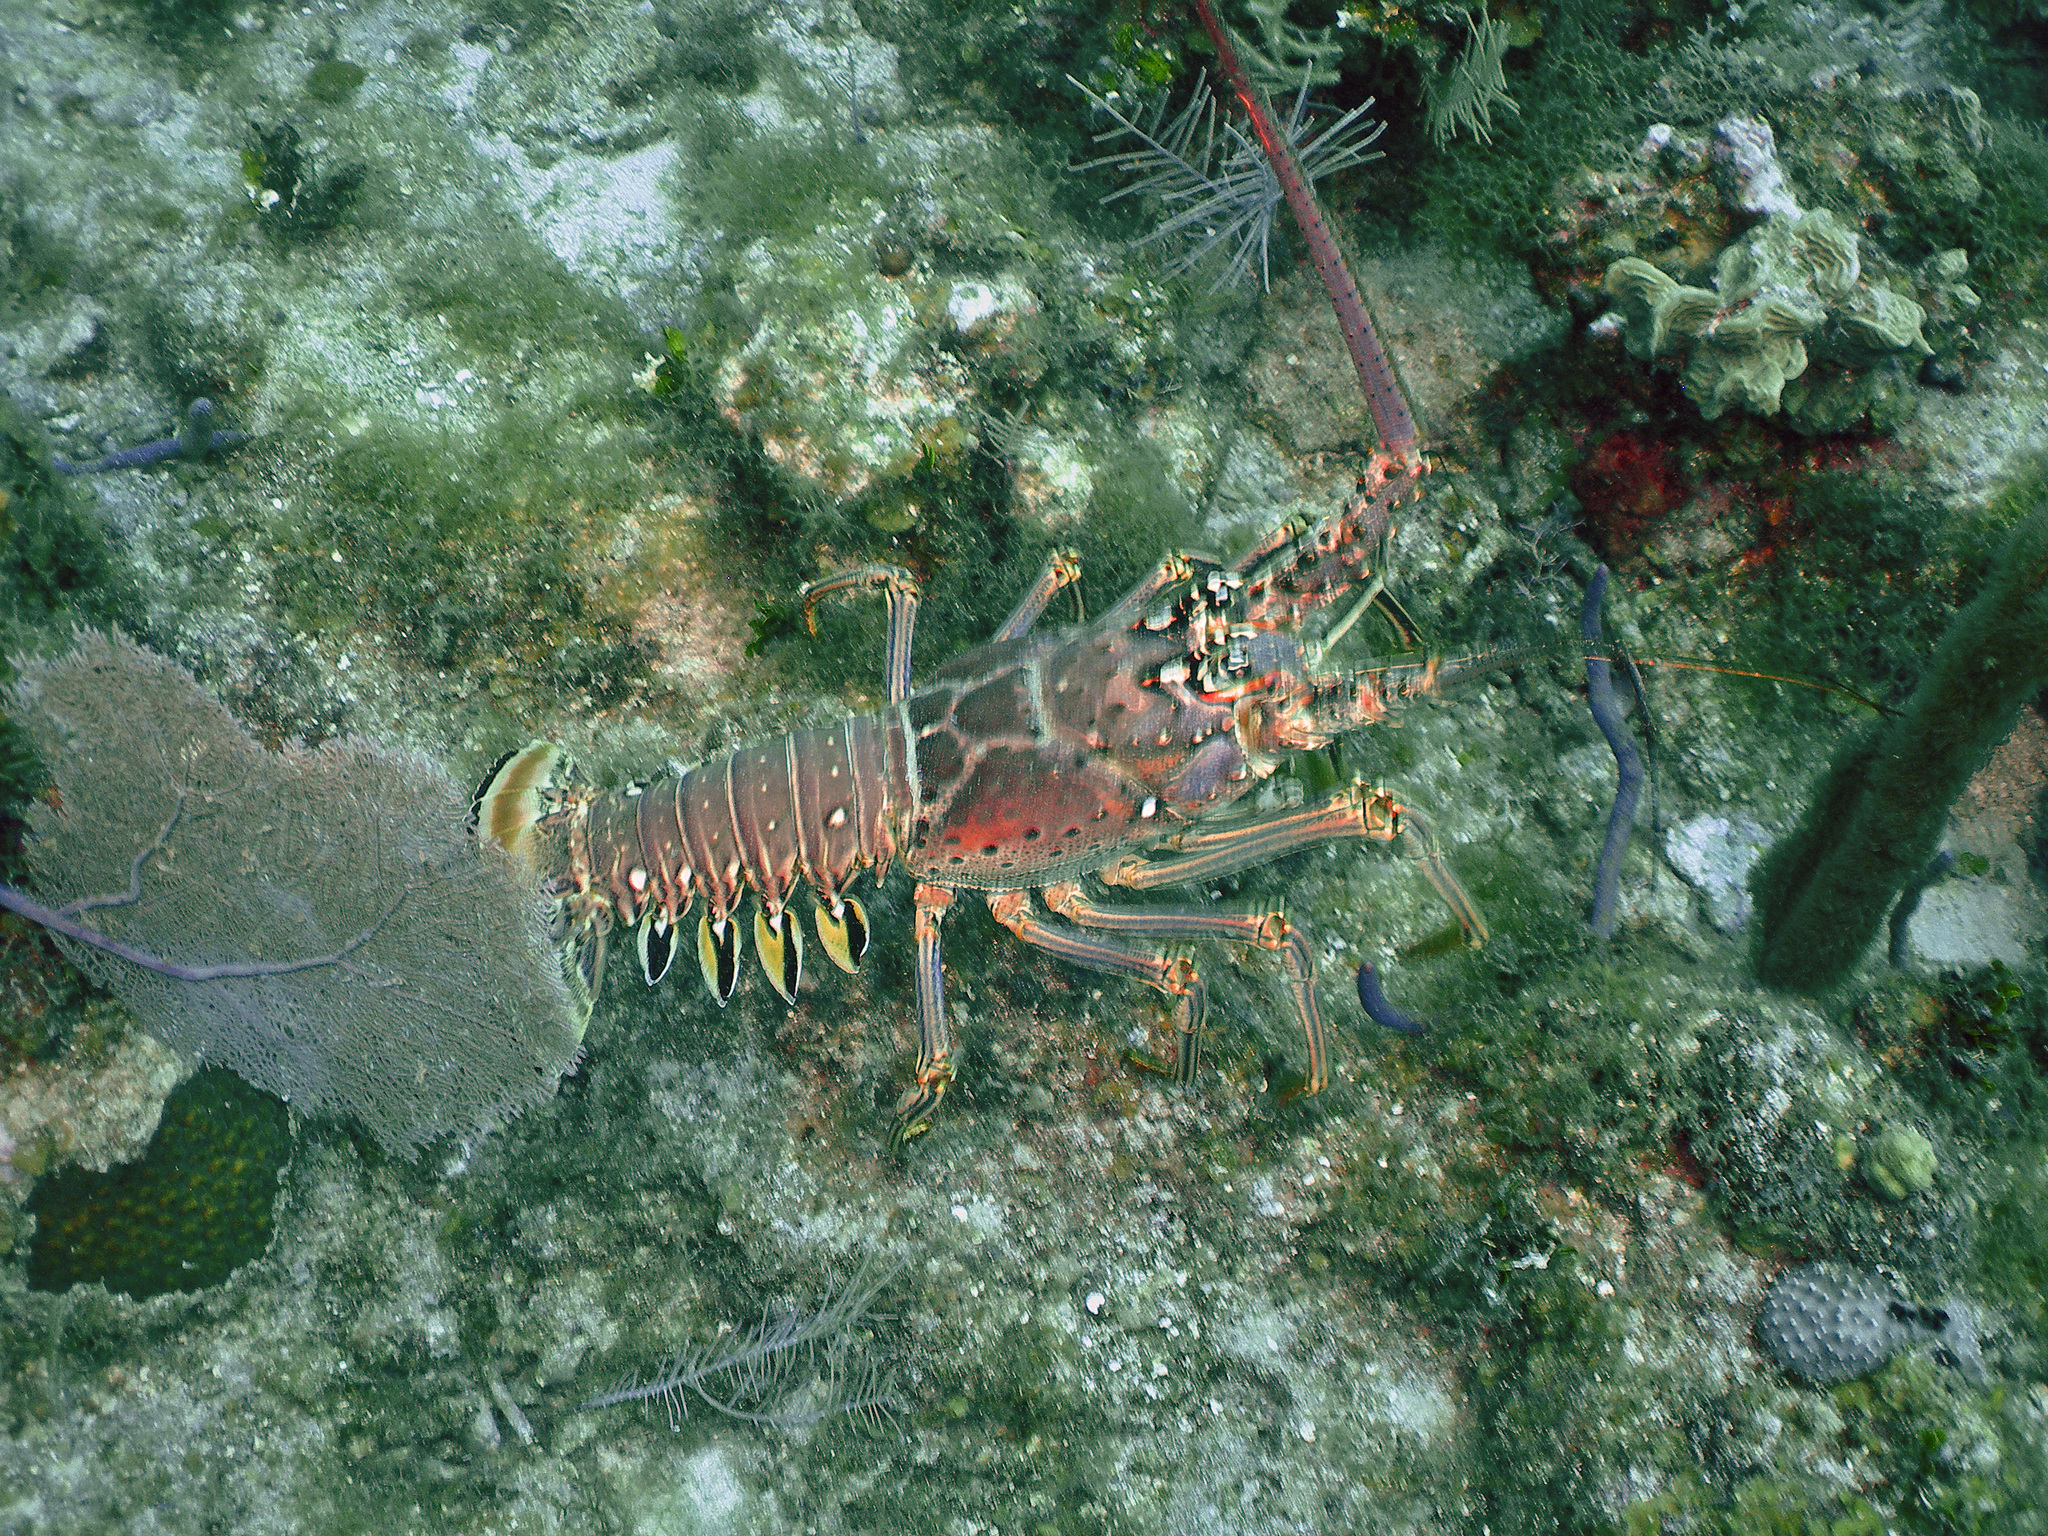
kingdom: Animalia
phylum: Arthropoda
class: Malacostraca
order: Decapoda
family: Palinuridae
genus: Panulirus
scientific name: Panulirus argus
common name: Caribbean spiny lobster
